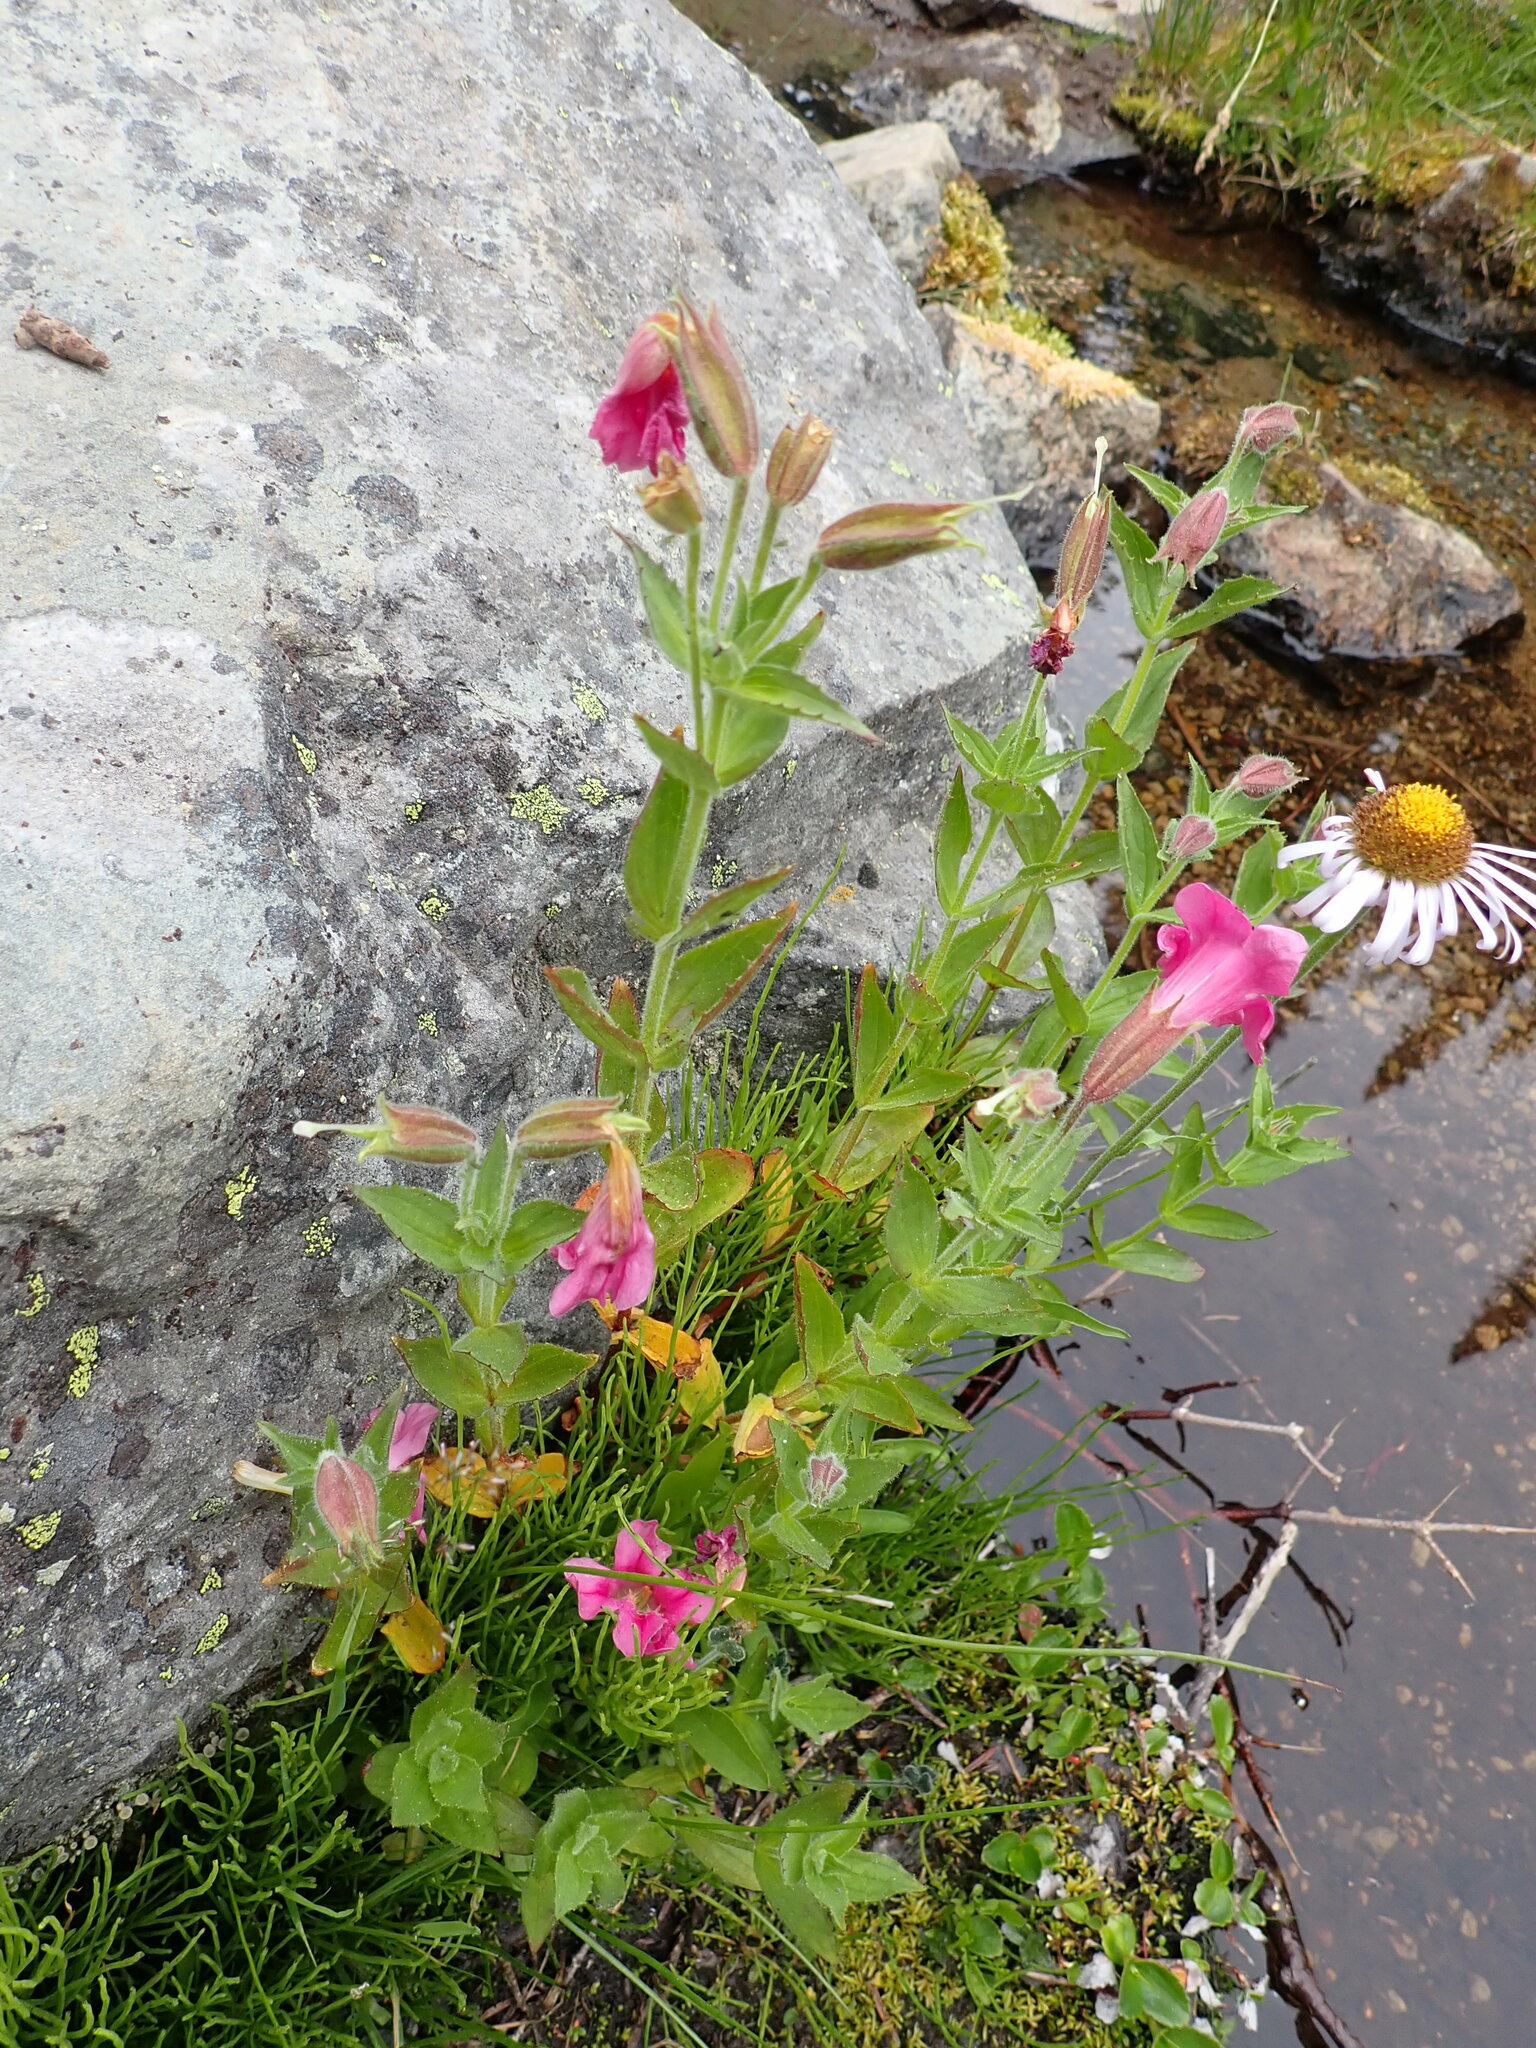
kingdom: Plantae
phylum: Tracheophyta
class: Magnoliopsida
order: Lamiales
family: Phrymaceae
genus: Erythranthe
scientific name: Erythranthe lewisii
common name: Lewis's monkey-flower
